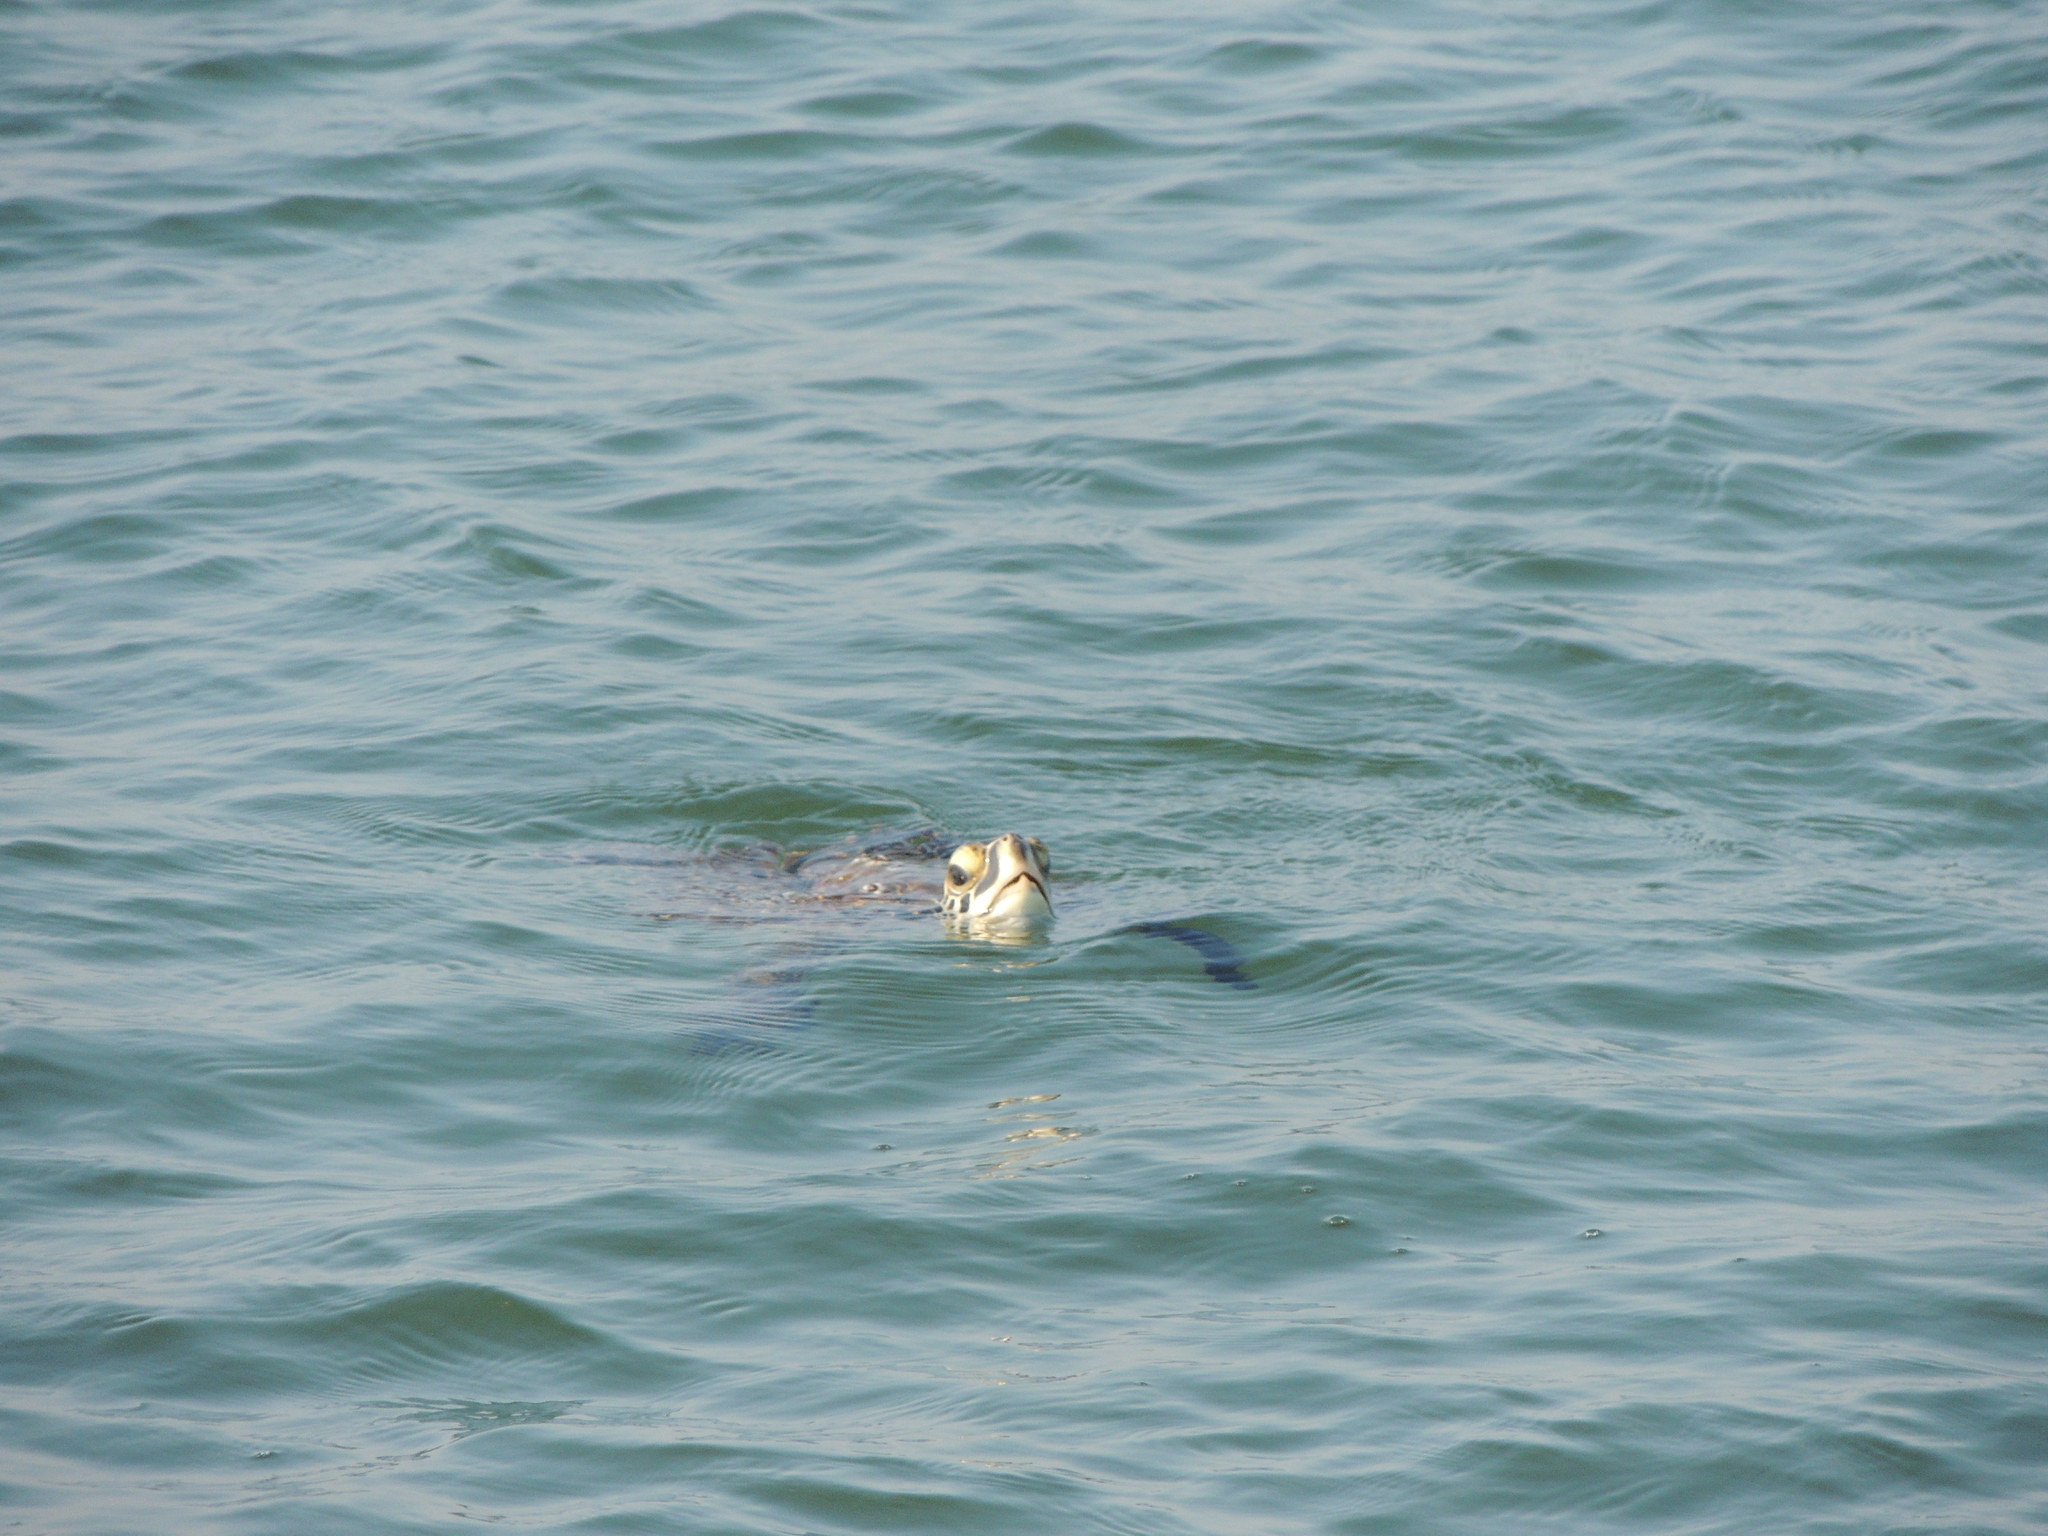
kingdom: Animalia
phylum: Chordata
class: Testudines
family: Cheloniidae
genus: Chelonia
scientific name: Chelonia mydas
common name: Green turtle
